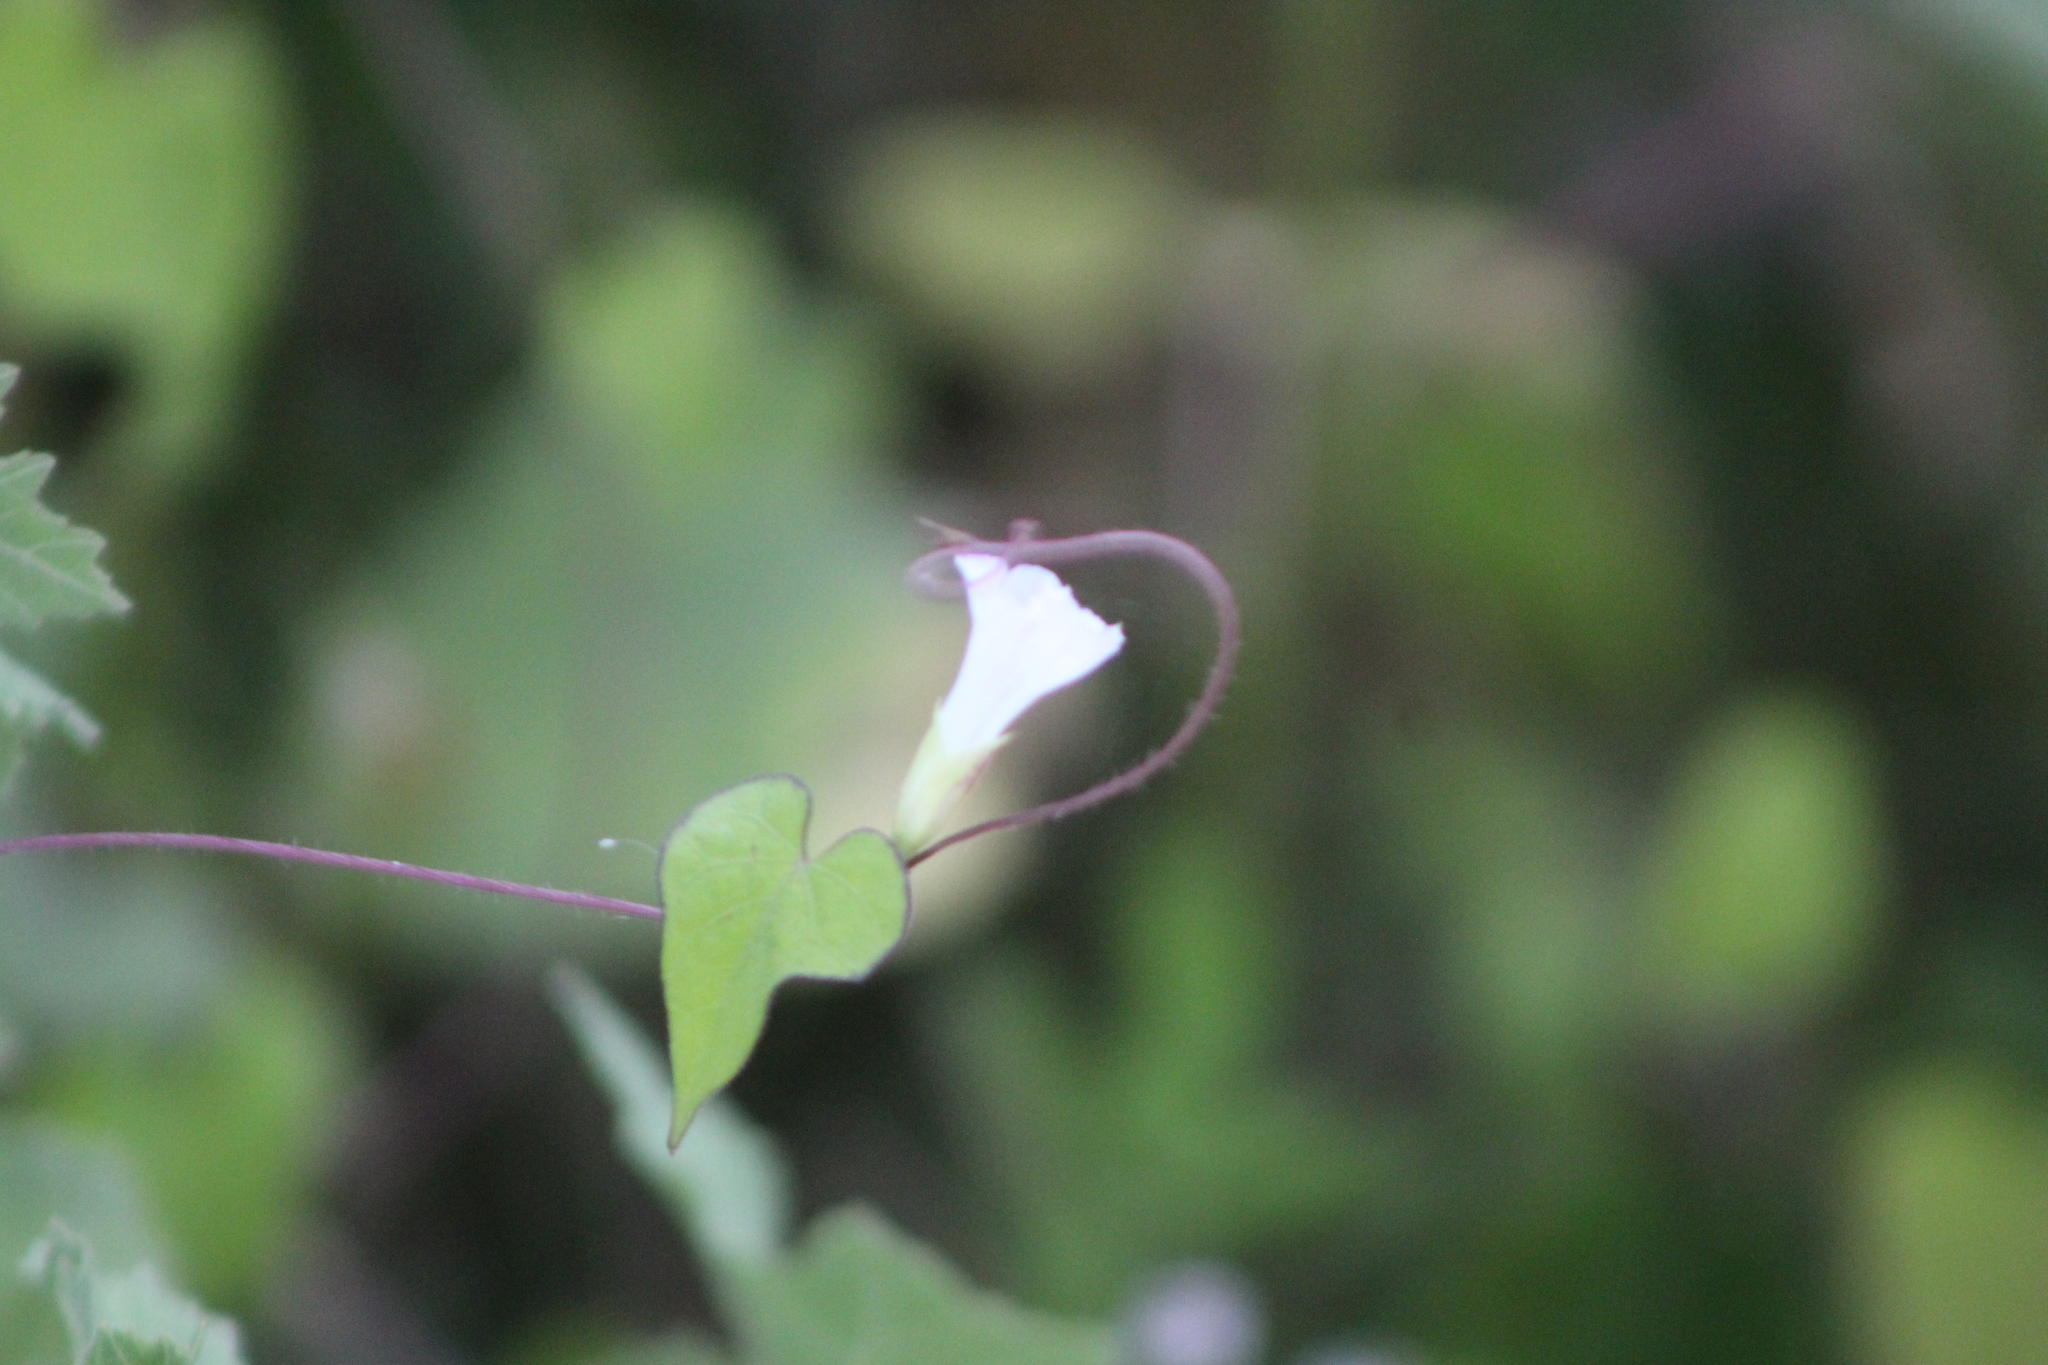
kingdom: Plantae
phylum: Tracheophyta
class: Magnoliopsida
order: Solanales
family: Convolvulaceae
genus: Ipomoea
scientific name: Ipomoea lacunosa
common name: White morning-glory
